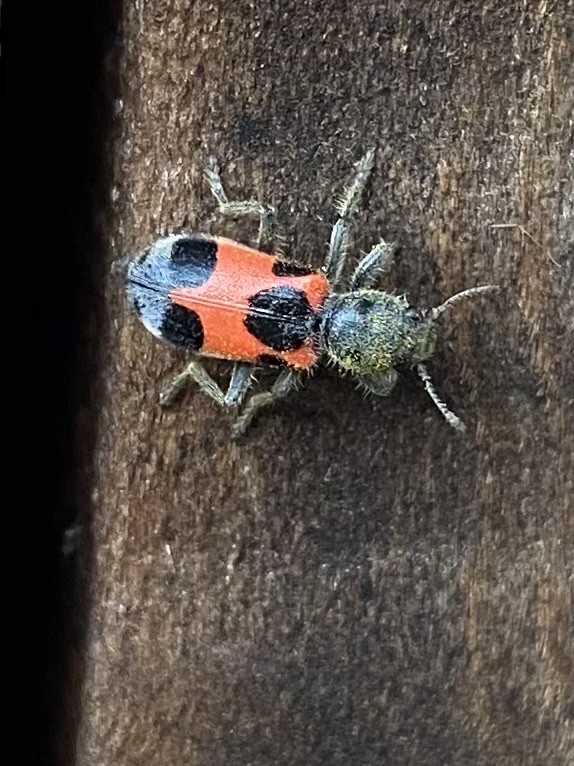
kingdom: Animalia
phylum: Arthropoda
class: Insecta
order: Coleoptera
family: Cleridae
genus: Enoclerus
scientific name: Enoclerus eximius
